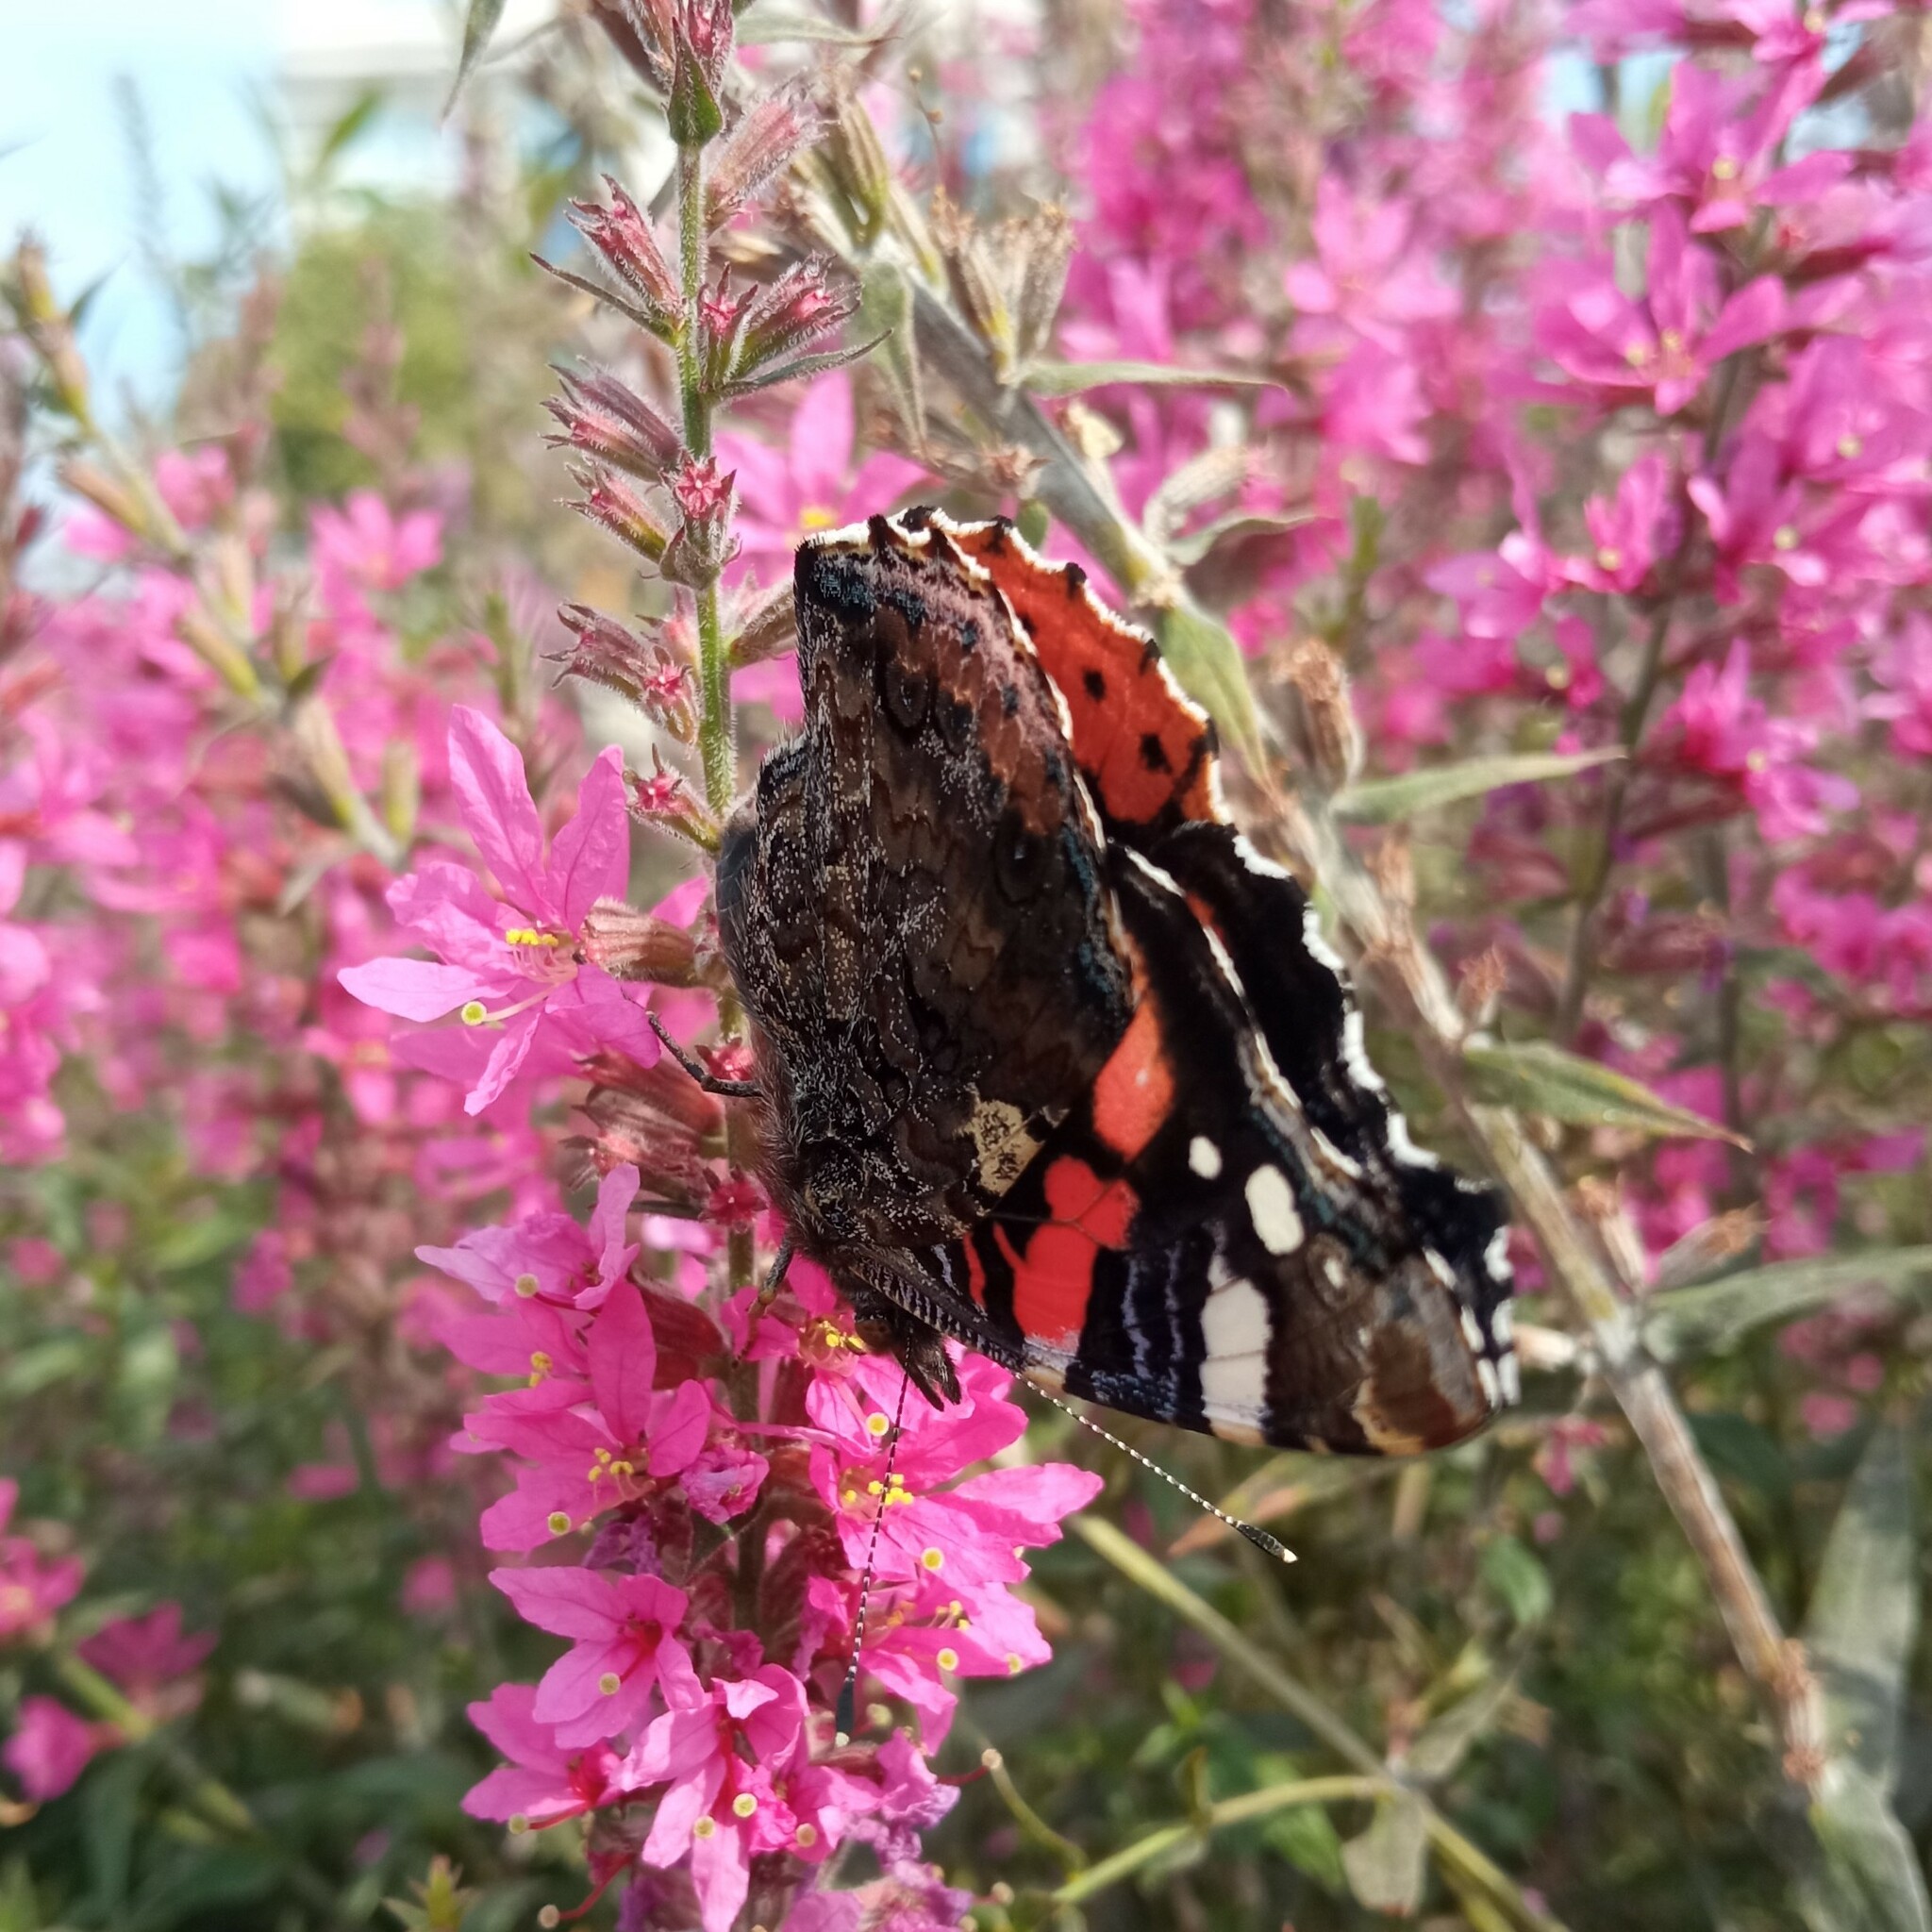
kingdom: Animalia
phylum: Arthropoda
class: Insecta
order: Lepidoptera
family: Nymphalidae
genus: Vanessa
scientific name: Vanessa atalanta
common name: Red admiral
